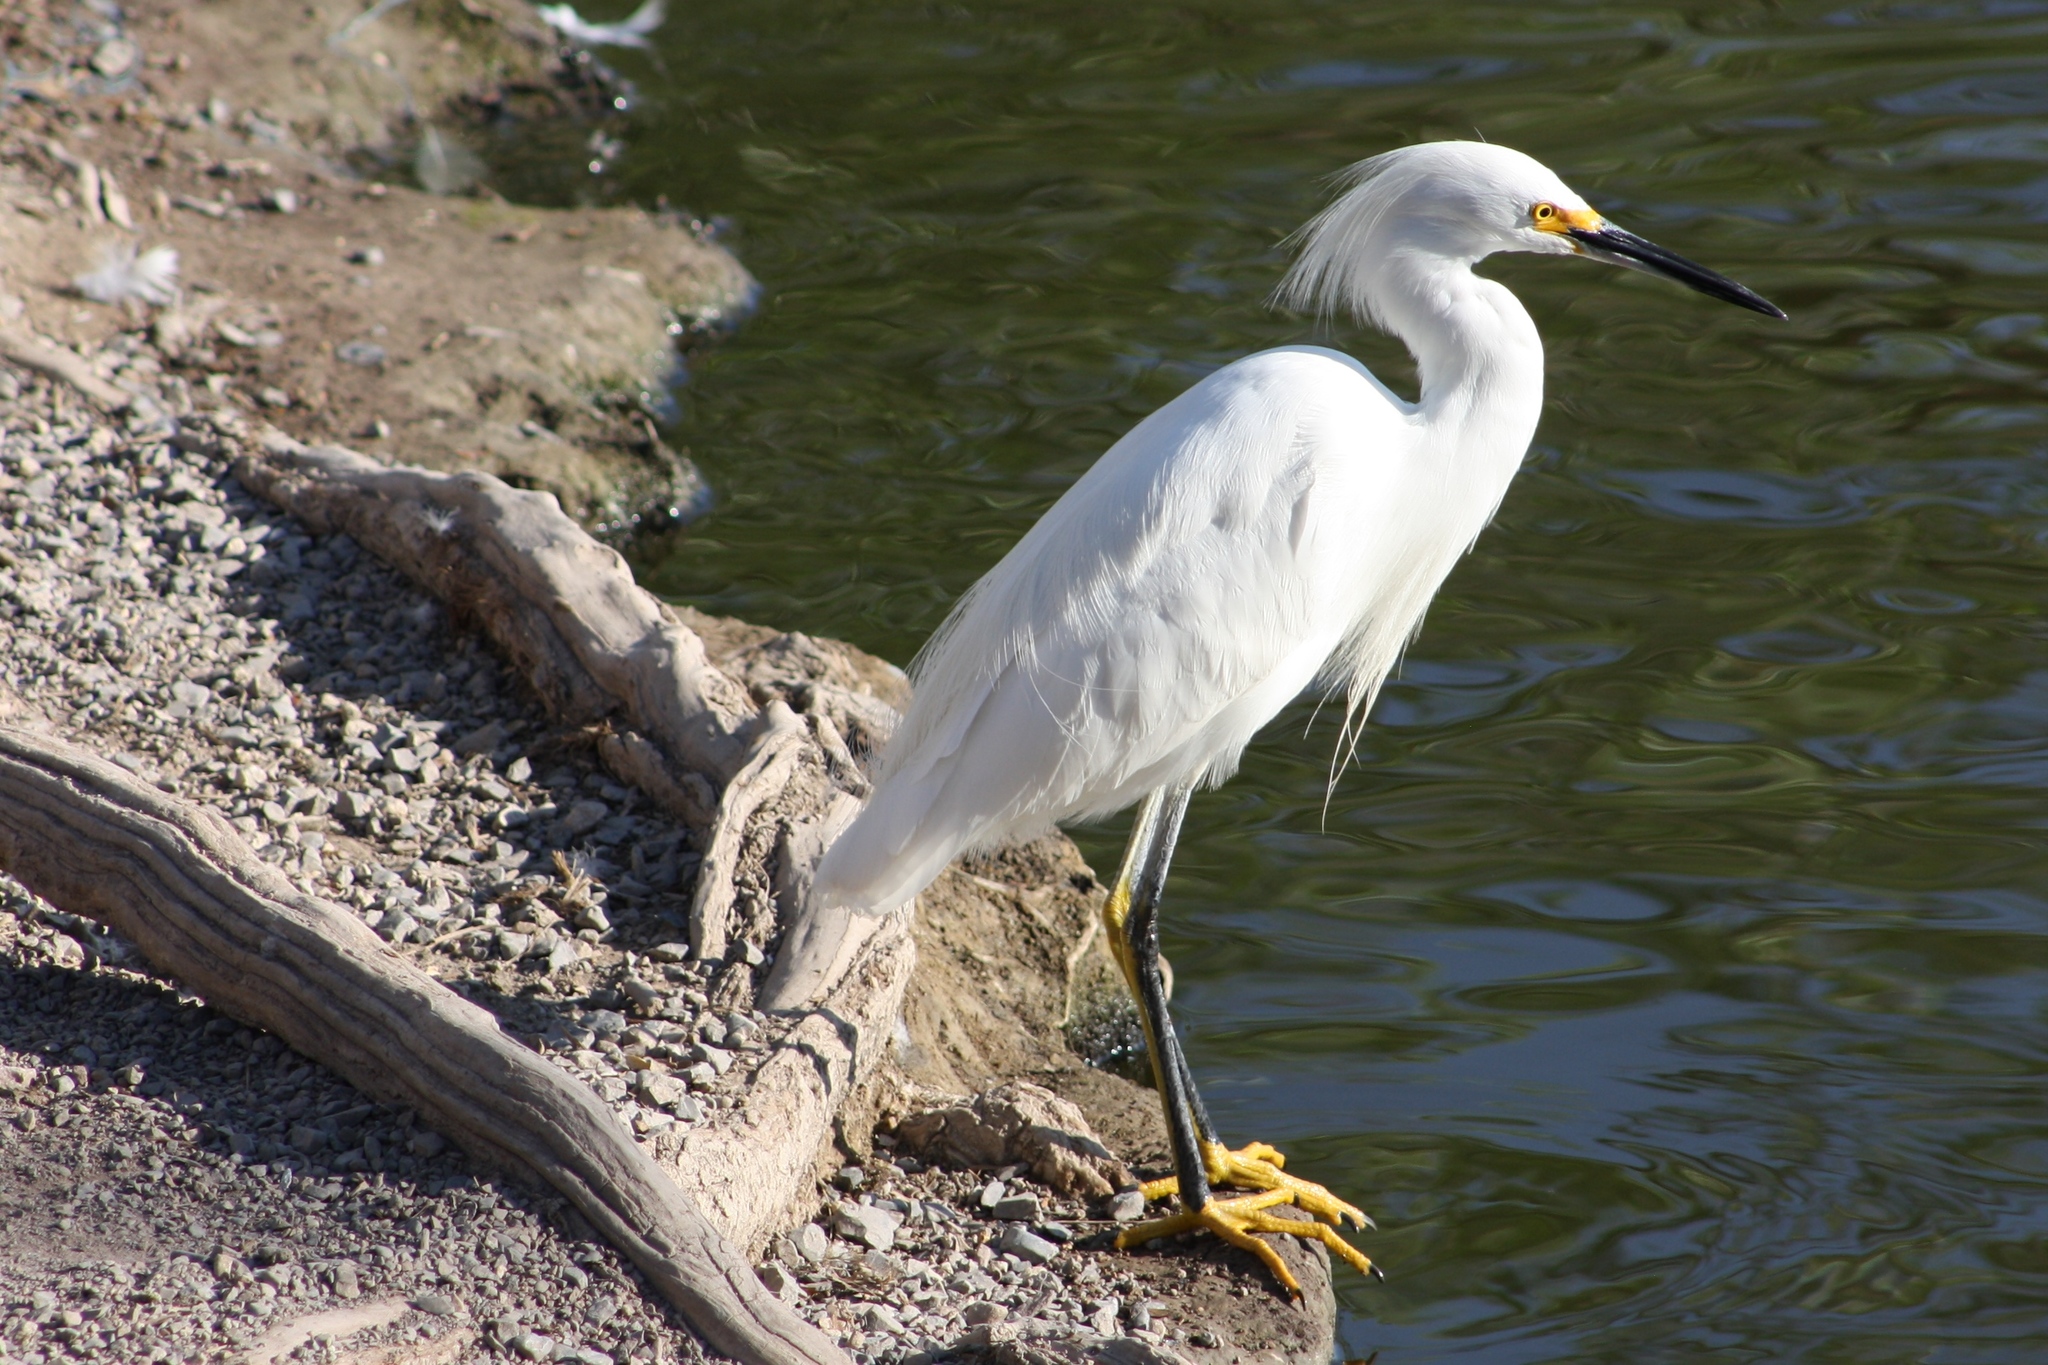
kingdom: Animalia
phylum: Chordata
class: Aves
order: Pelecaniformes
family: Ardeidae
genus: Egretta
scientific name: Egretta thula
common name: Snowy egret
